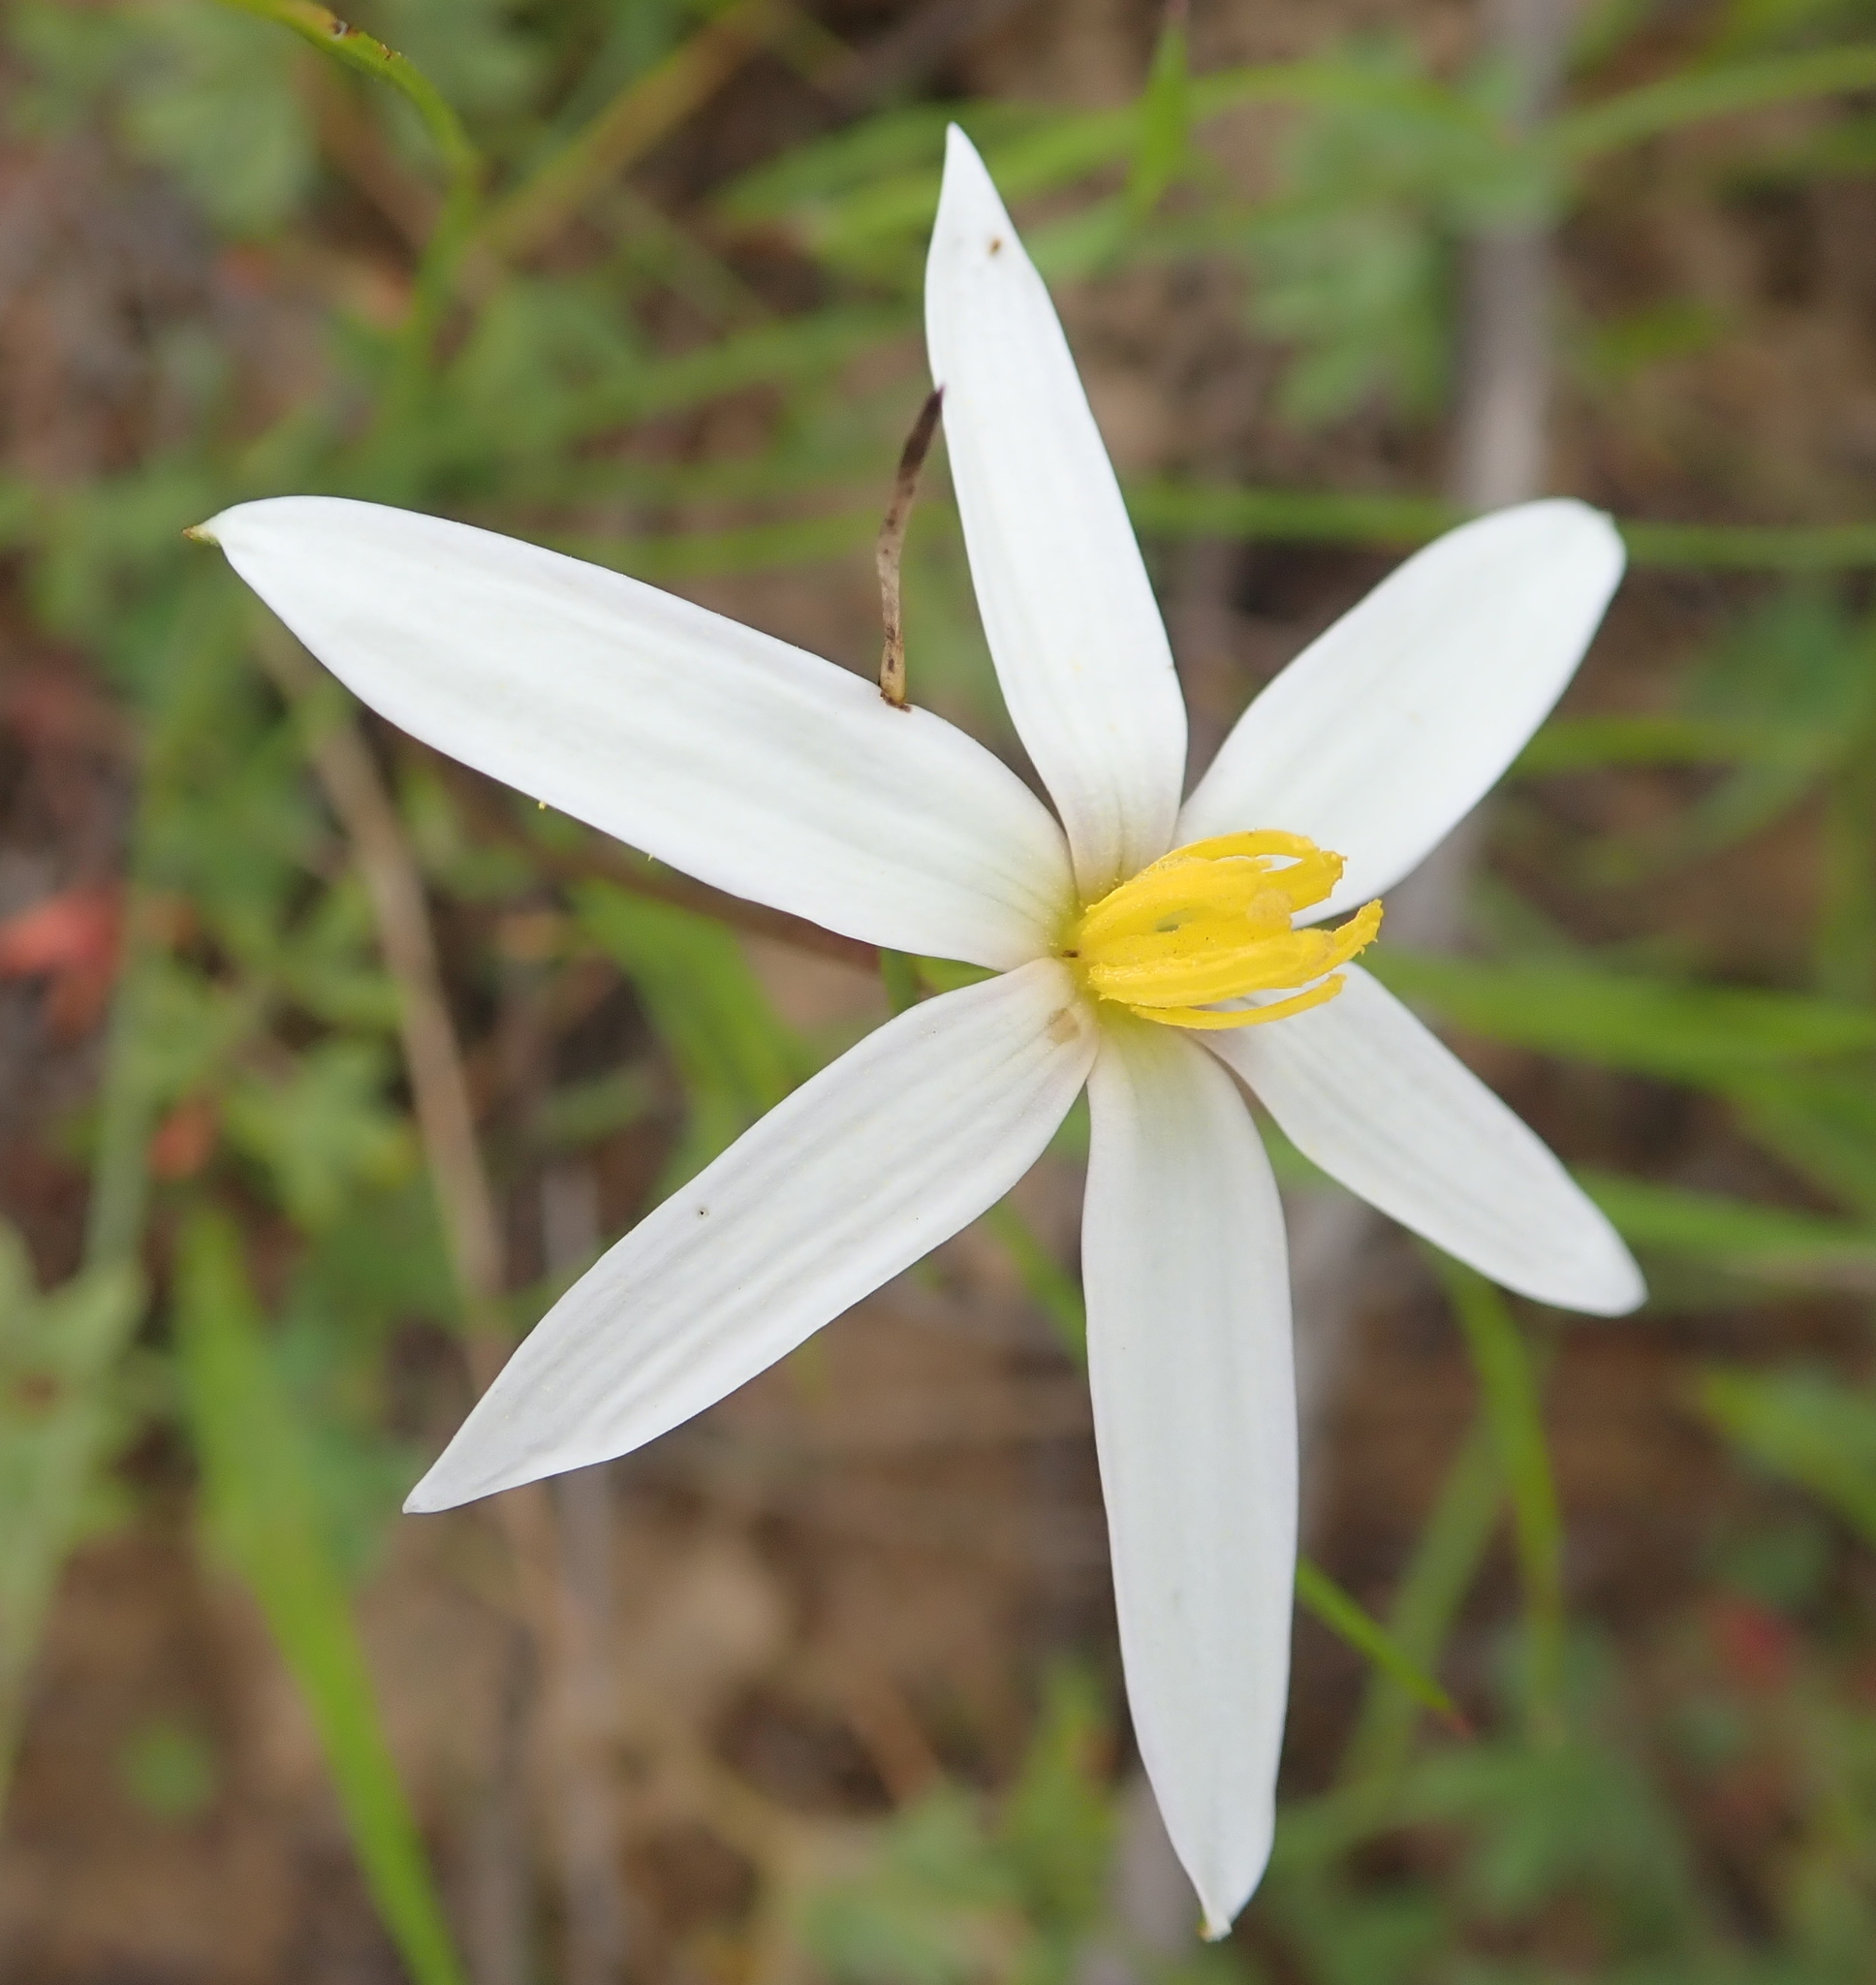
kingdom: Plantae
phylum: Tracheophyta
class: Liliopsida
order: Asparagales
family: Hypoxidaceae
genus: Pauridia
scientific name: Pauridia serrata
